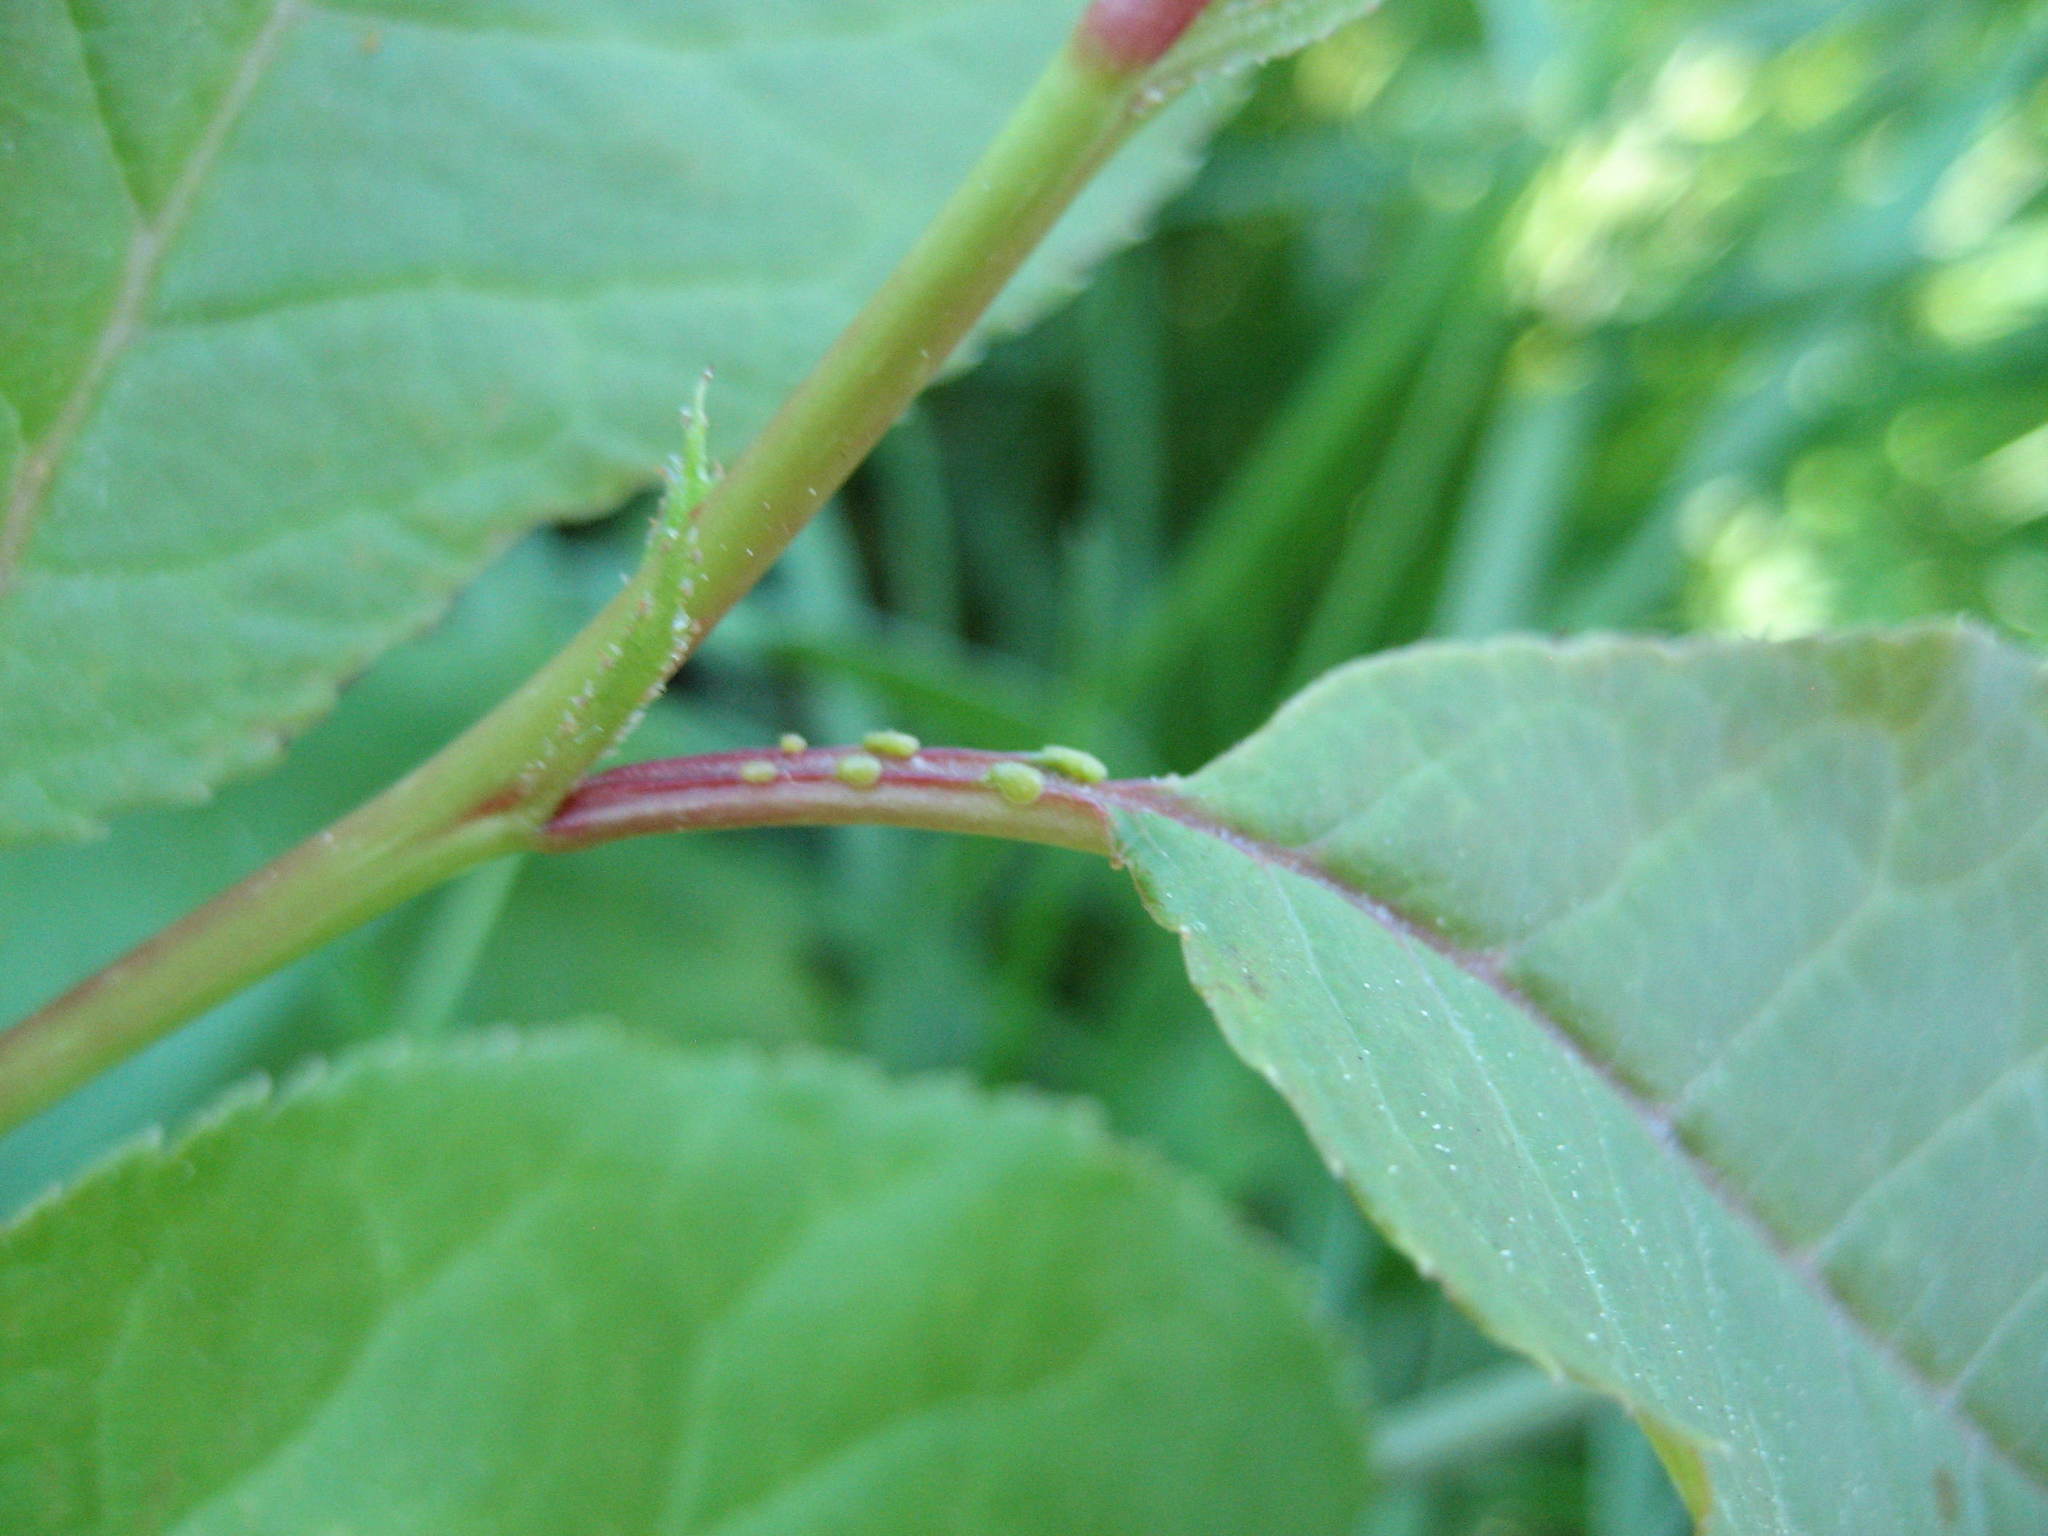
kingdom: Plantae
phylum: Tracheophyta
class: Magnoliopsida
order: Rosales
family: Rosaceae
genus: Prunus
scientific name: Prunus virginiana
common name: Chokecherry
